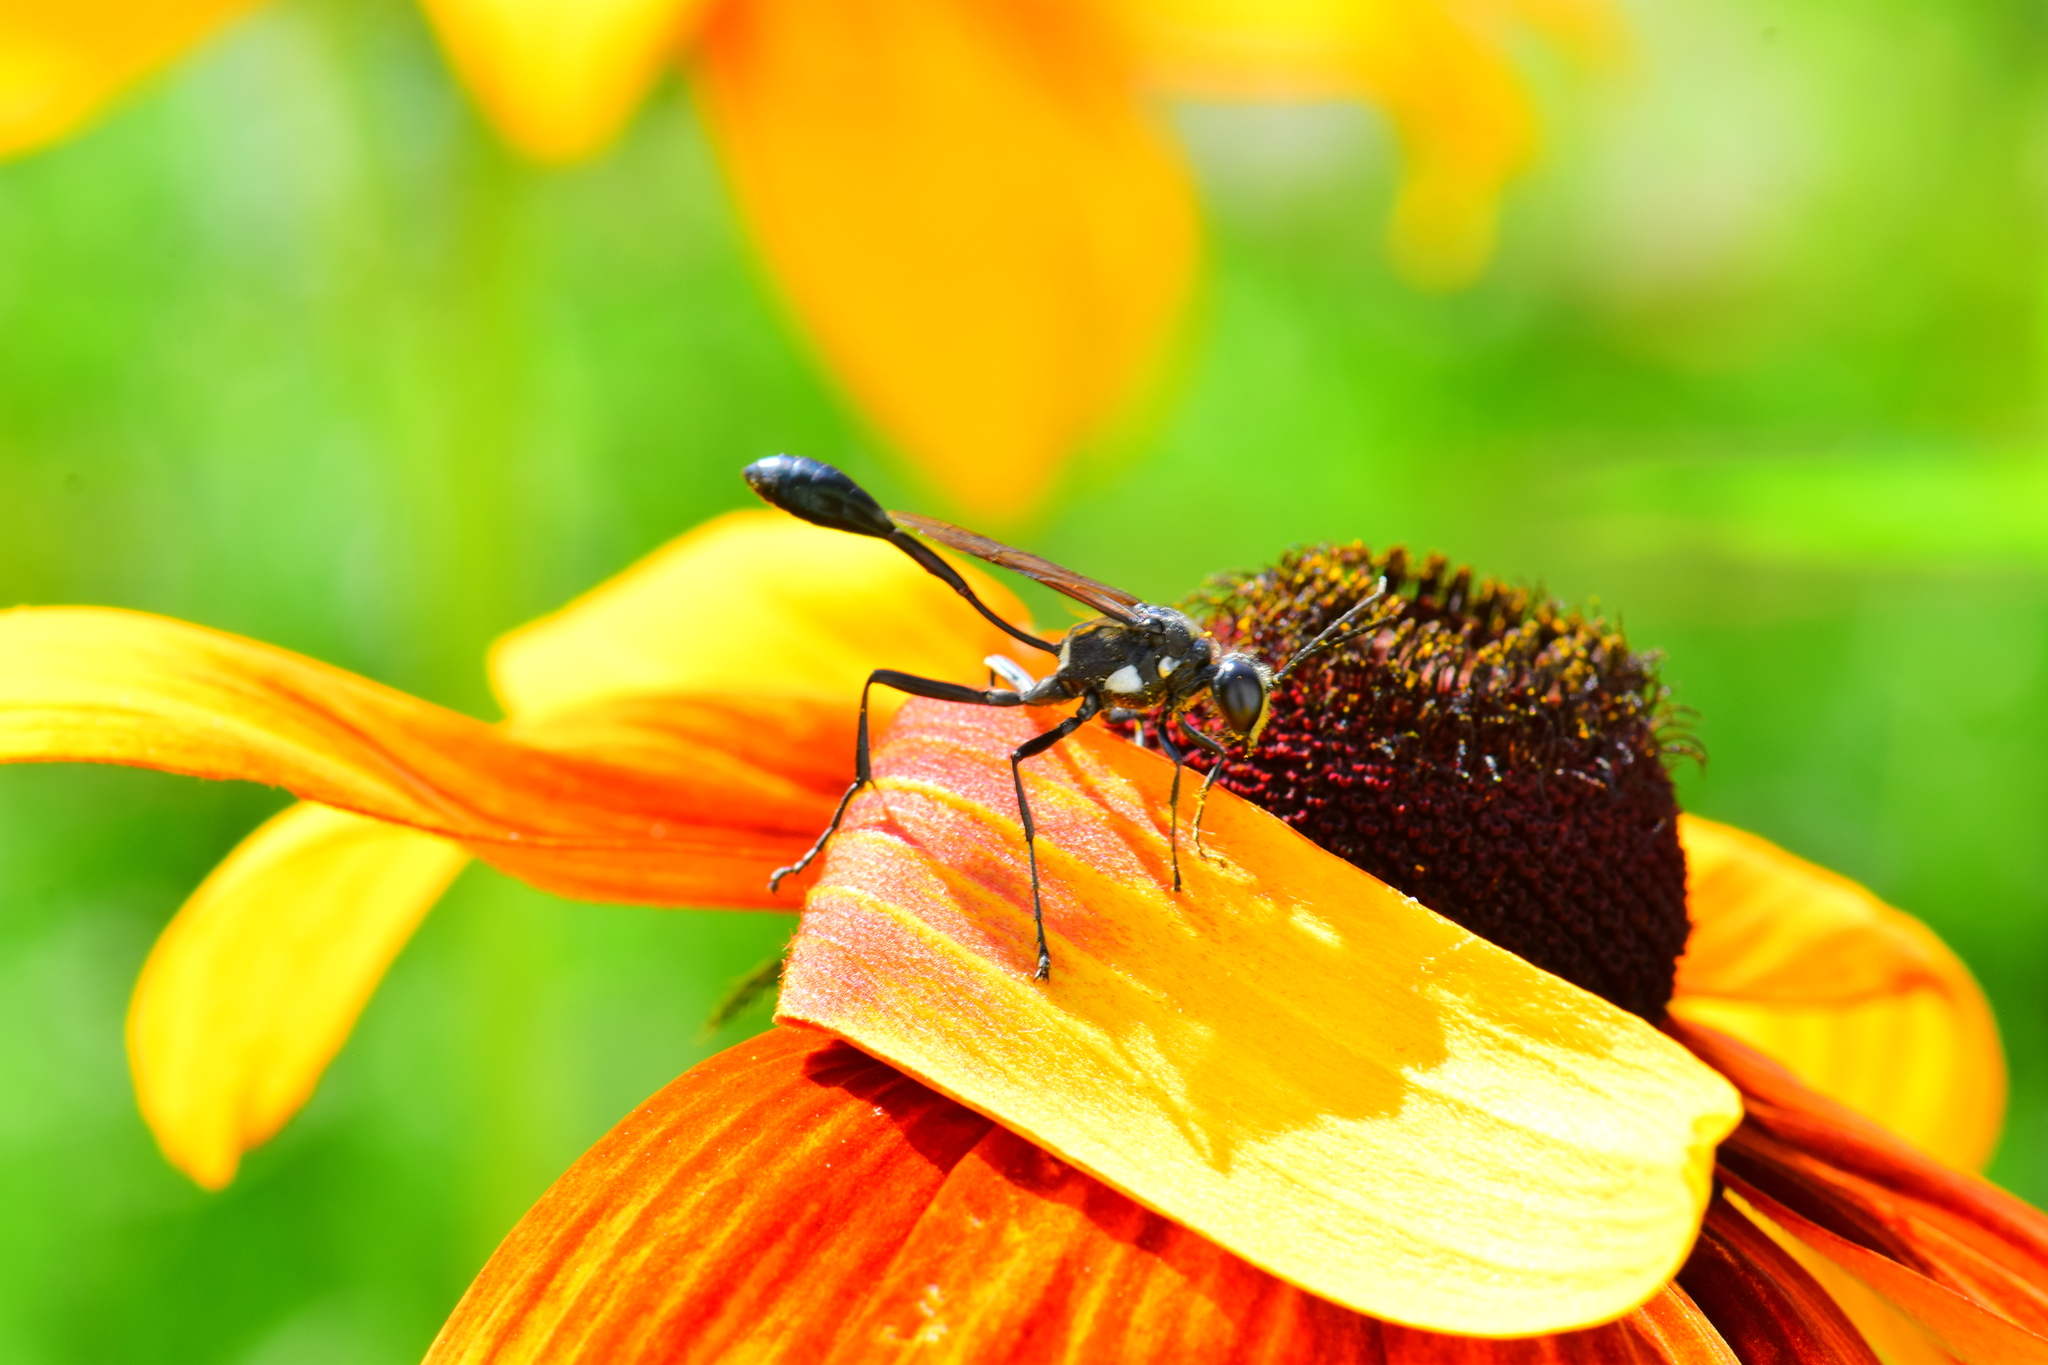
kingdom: Animalia
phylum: Arthropoda
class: Insecta
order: Hymenoptera
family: Sphecidae
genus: Eremnophila
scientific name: Eremnophila aureonotata
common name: Gold-marked thread-waisted wasp
